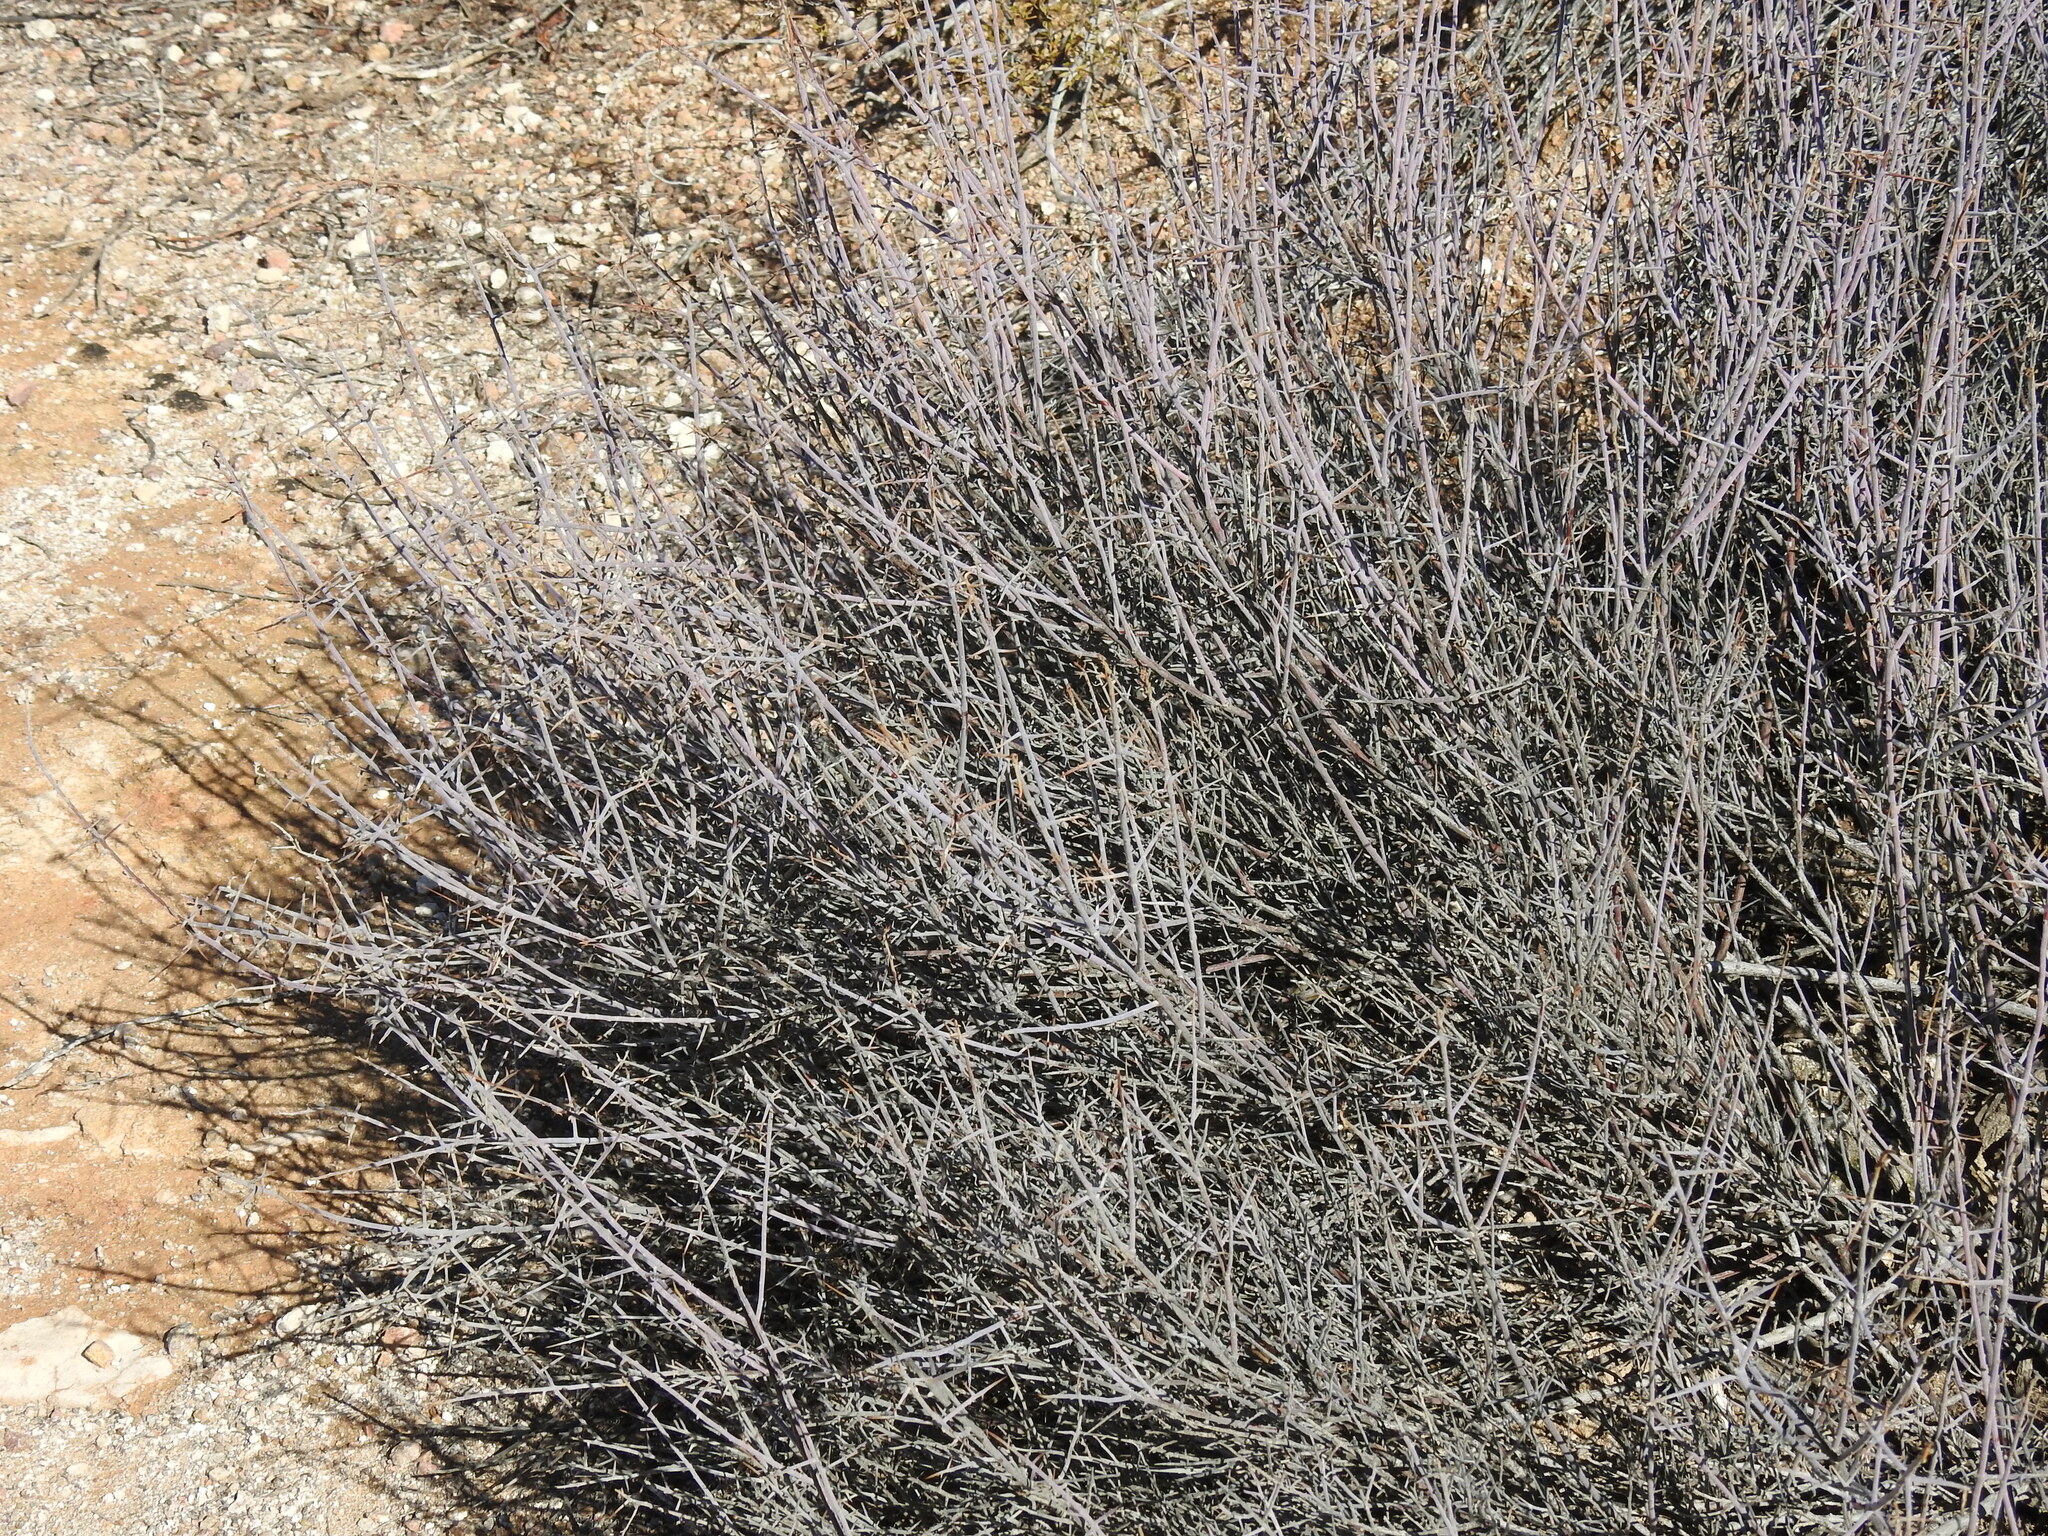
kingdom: Plantae
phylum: Tracheophyta
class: Magnoliopsida
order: Zygophyllales
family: Krameriaceae
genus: Krameria
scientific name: Krameria bicolor
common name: White ratany
